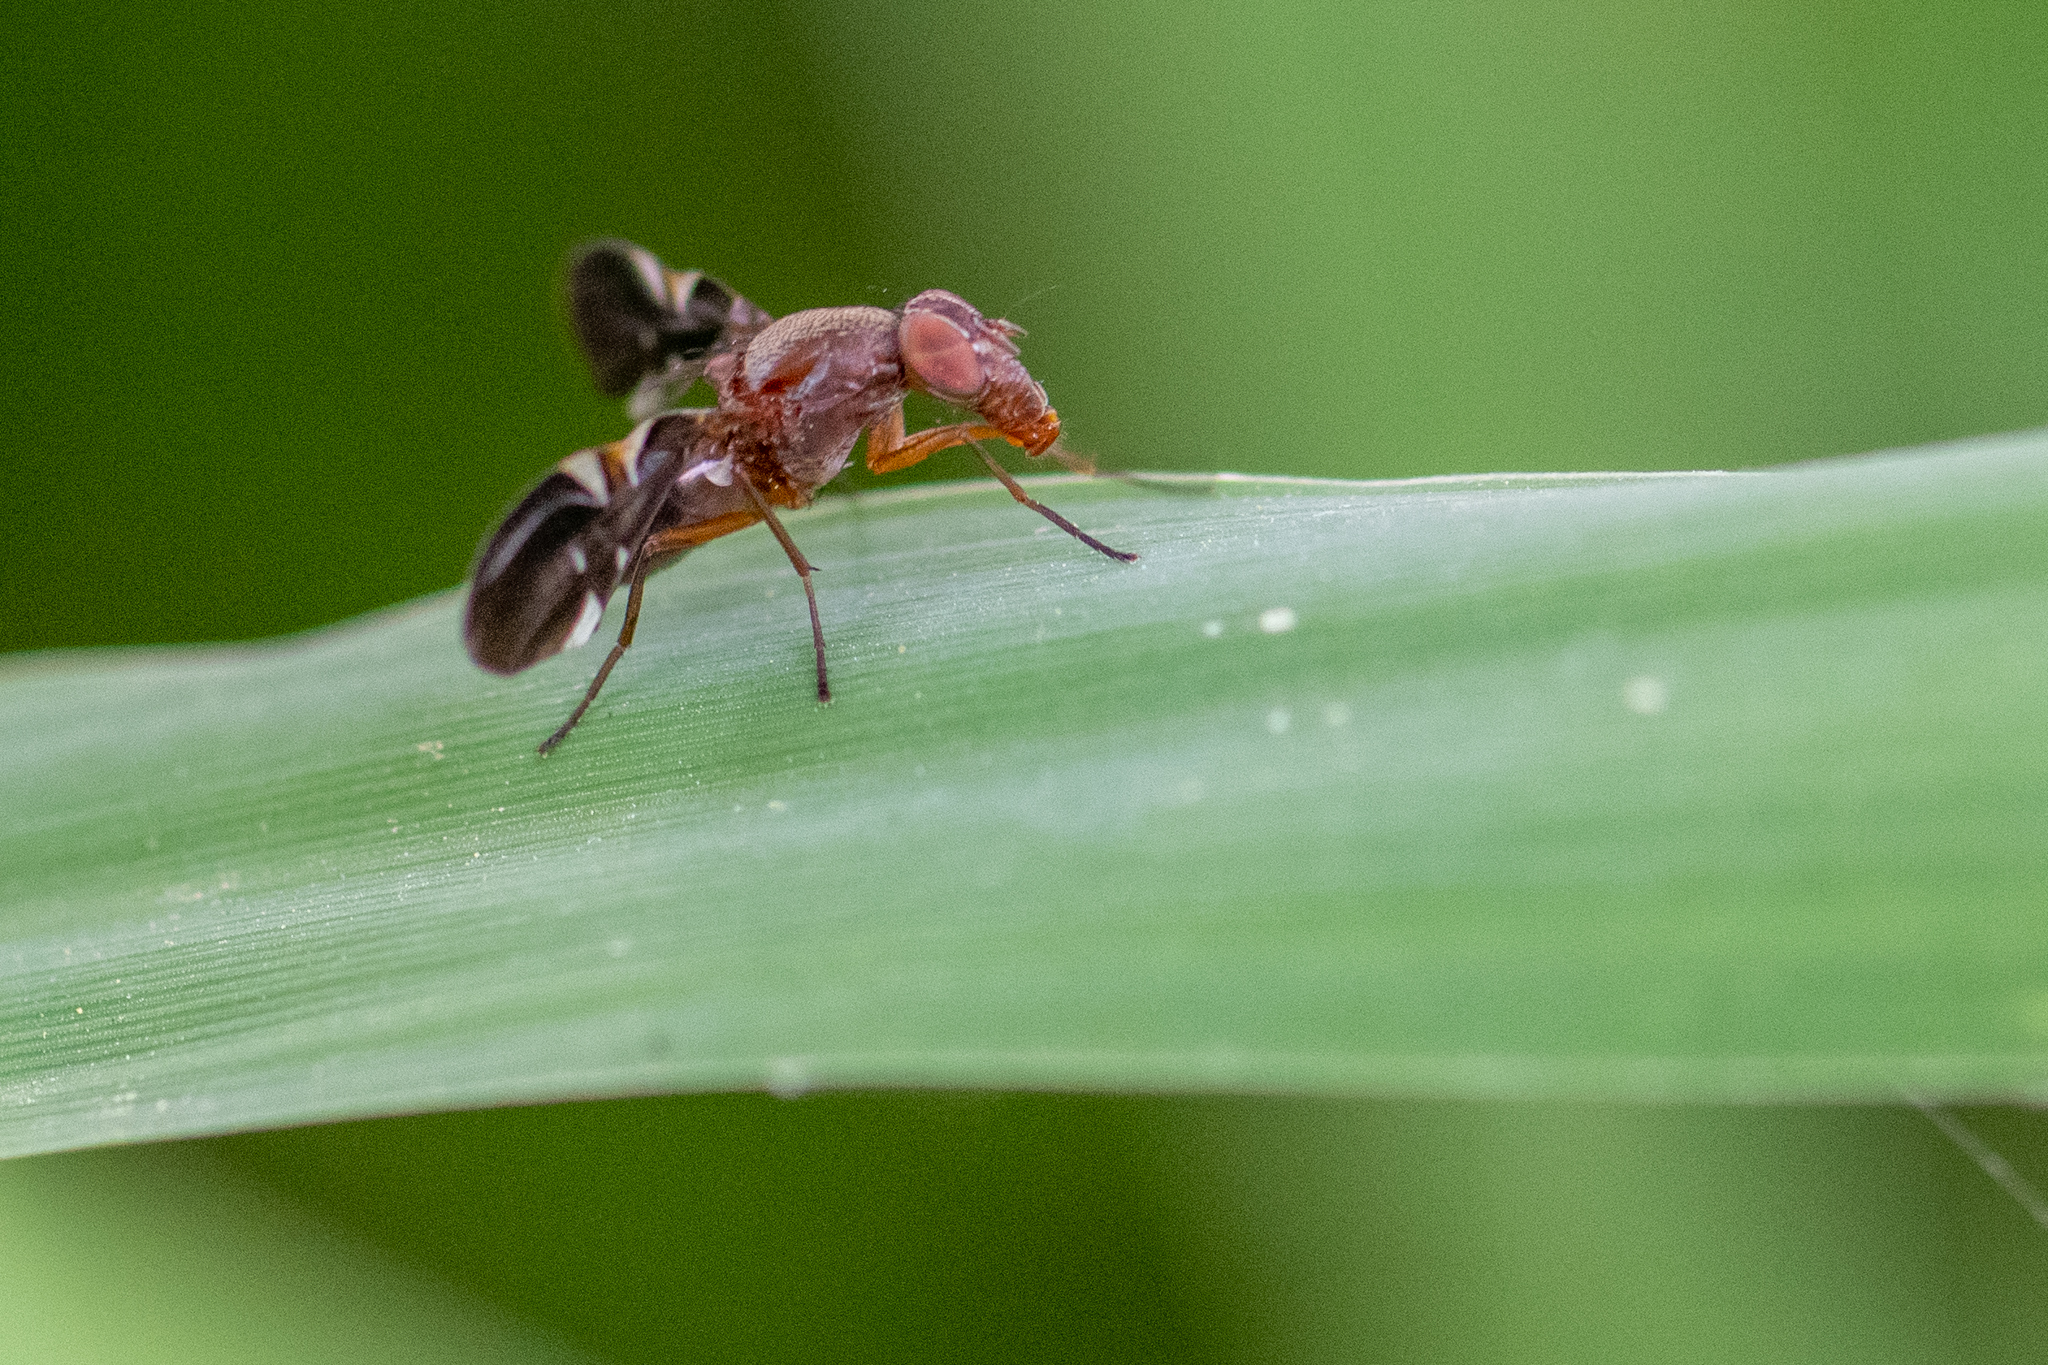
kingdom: Animalia
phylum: Arthropoda
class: Insecta
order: Diptera
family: Ulidiidae
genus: Delphinia
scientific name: Delphinia picta
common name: Common picture-winged fly
